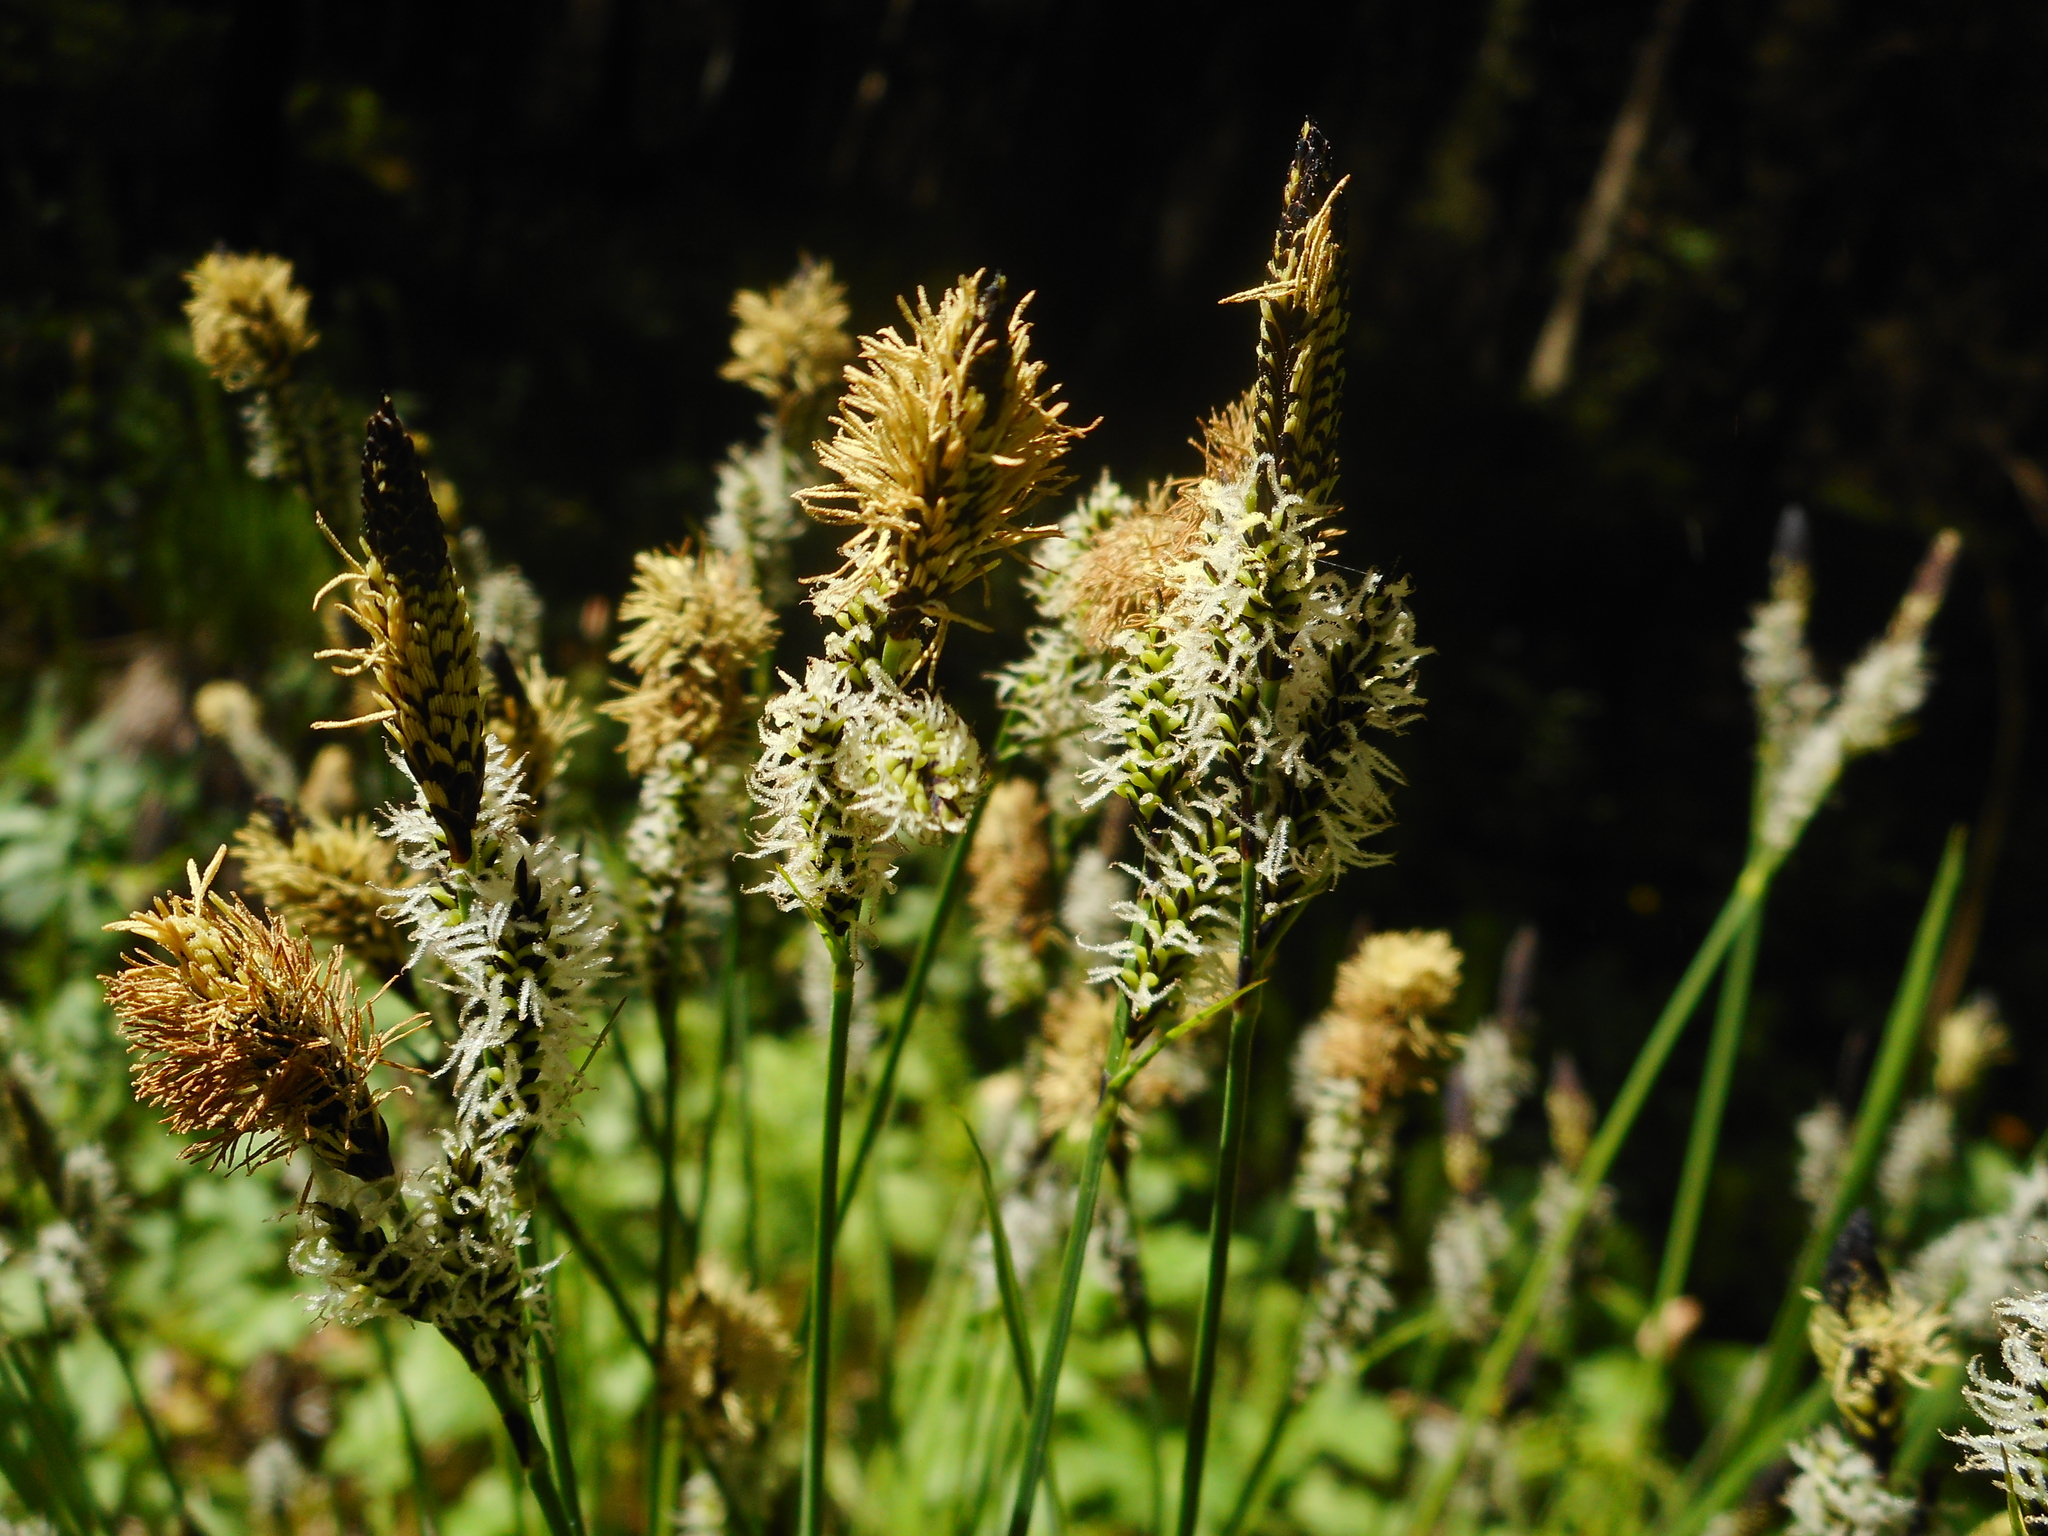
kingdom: Plantae
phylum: Tracheophyta
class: Liliopsida
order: Poales
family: Cyperaceae
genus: Carex
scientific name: Carex cespitosa
